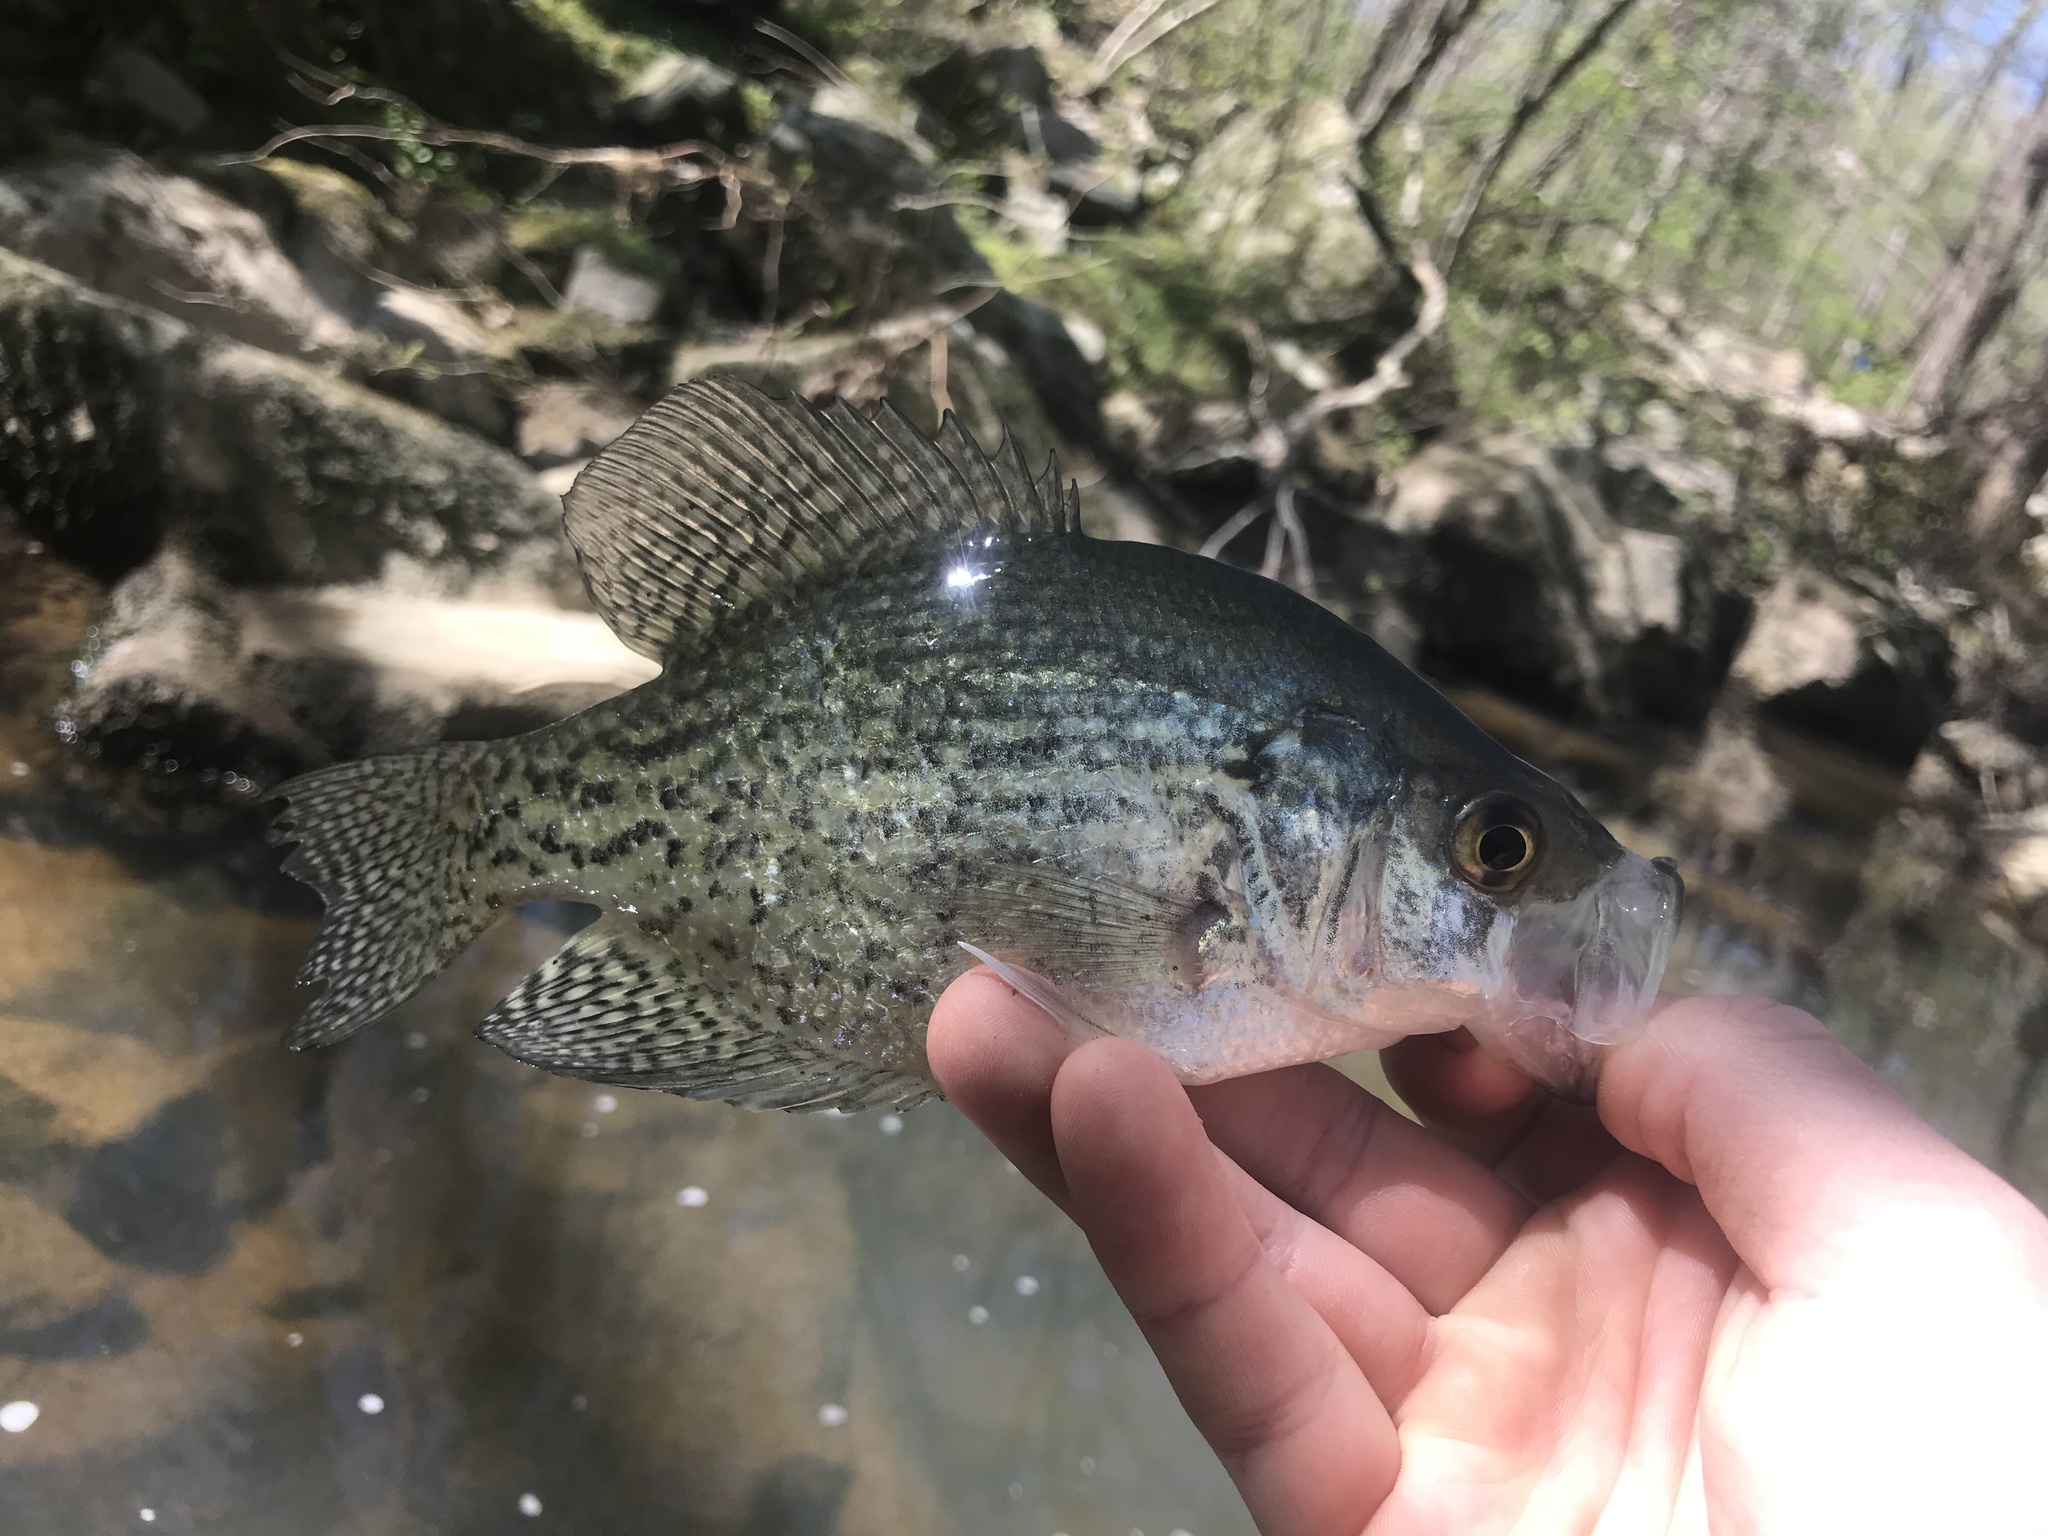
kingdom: Animalia
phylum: Chordata
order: Perciformes
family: Centrarchidae
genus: Pomoxis
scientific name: Pomoxis nigromaculatus
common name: Black crappie
